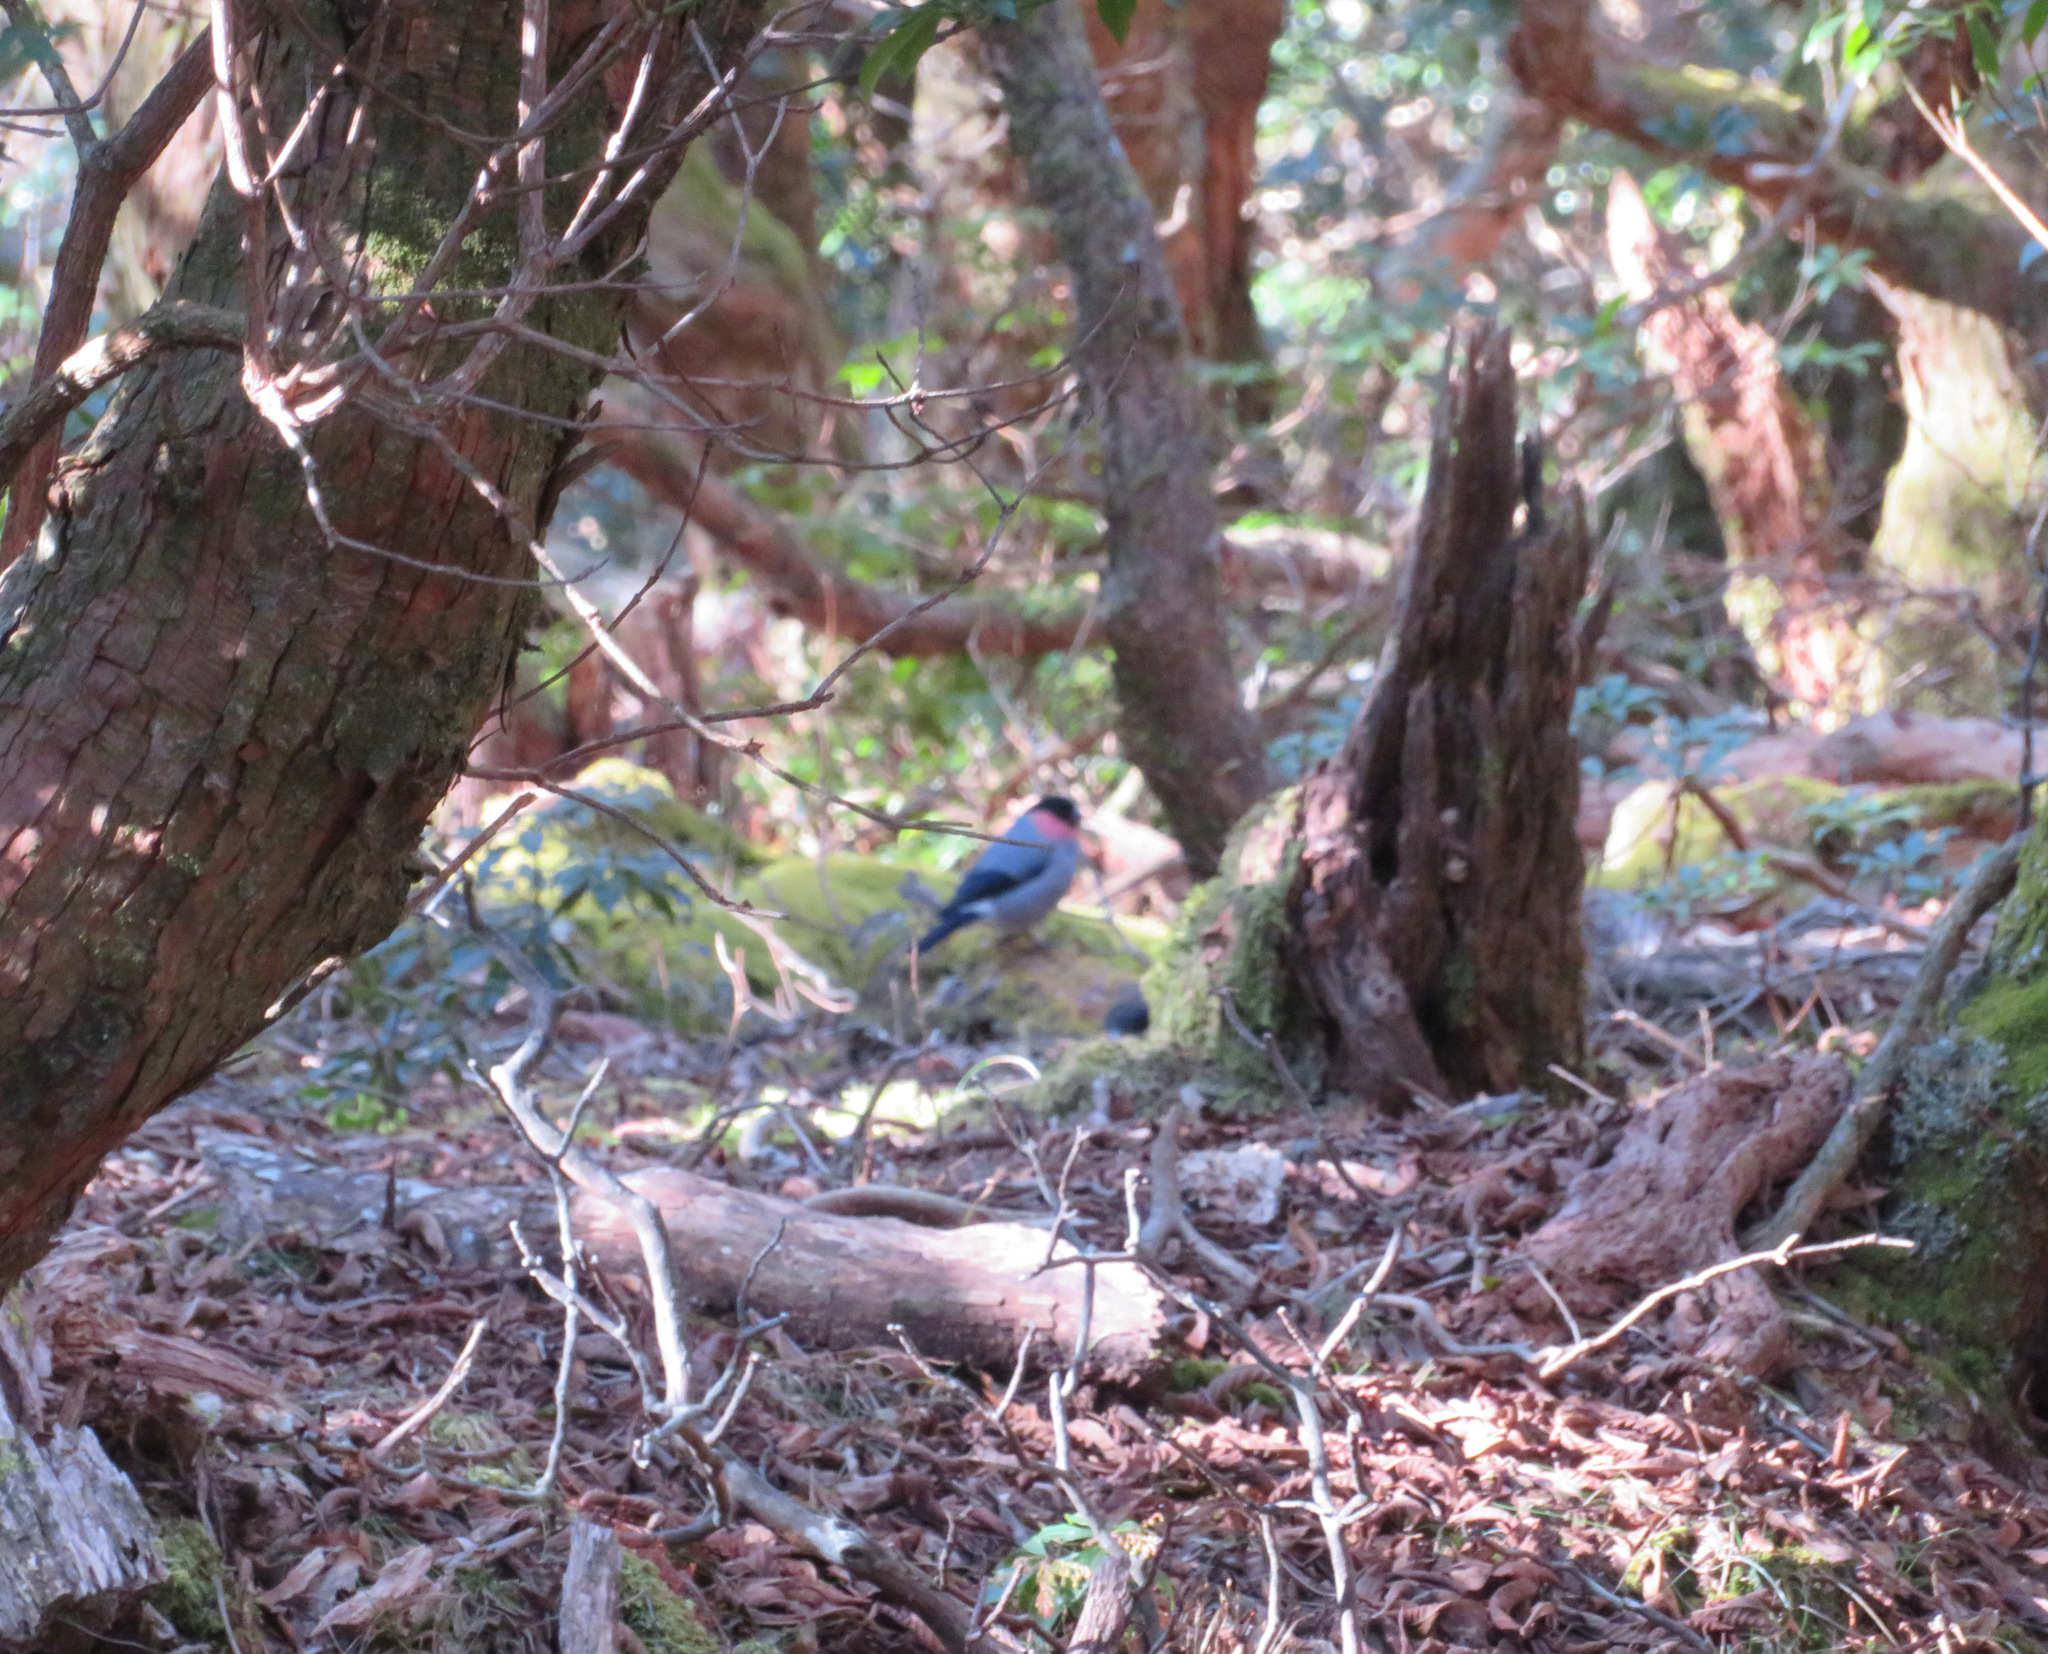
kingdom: Animalia
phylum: Chordata
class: Aves
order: Passeriformes
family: Fringillidae
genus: Pyrrhula
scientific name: Pyrrhula pyrrhula
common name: Eurasian bullfinch
